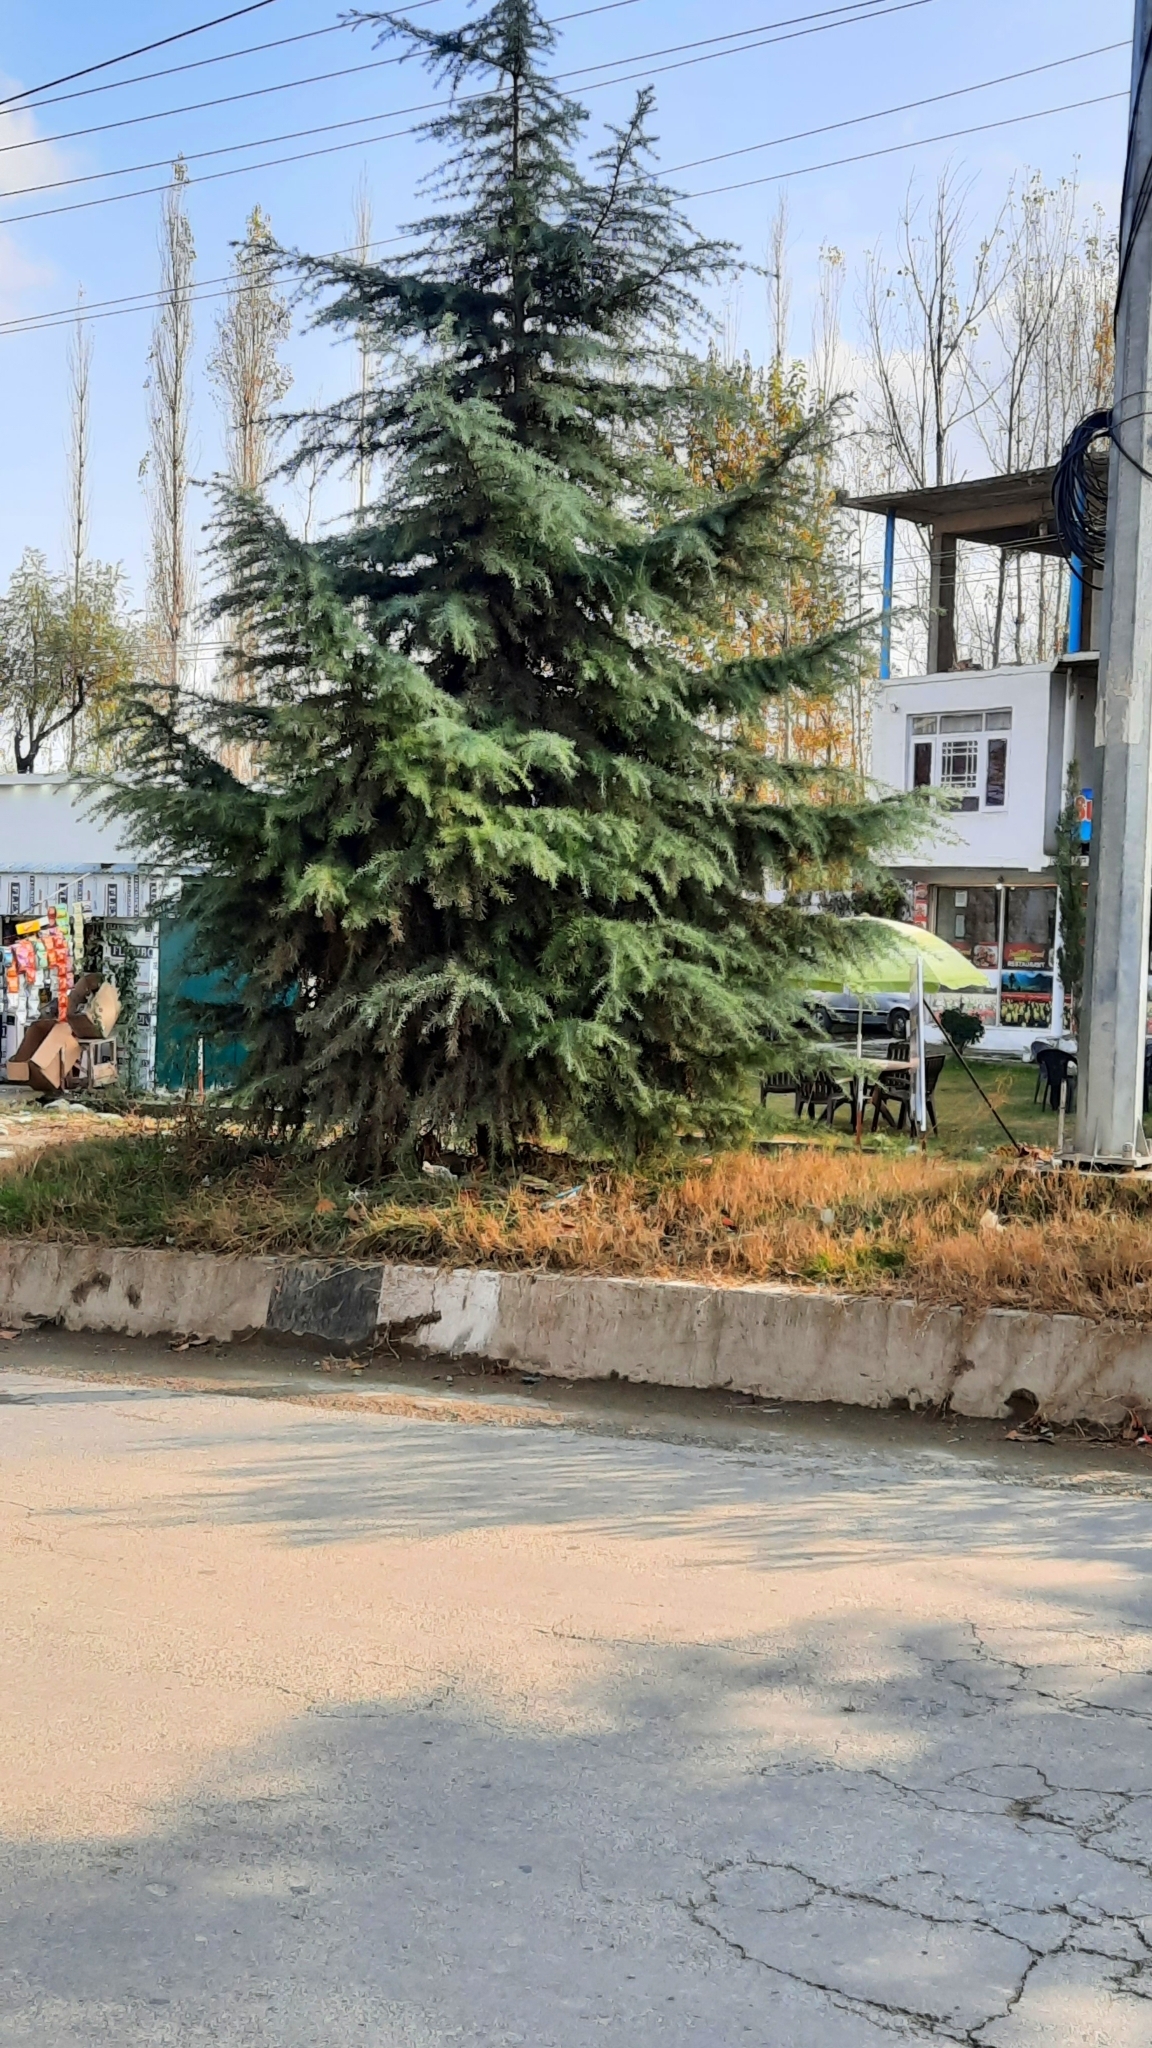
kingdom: Plantae
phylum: Tracheophyta
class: Pinopsida
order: Pinales
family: Pinaceae
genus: Cedrus
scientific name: Cedrus deodara
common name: Deodar
